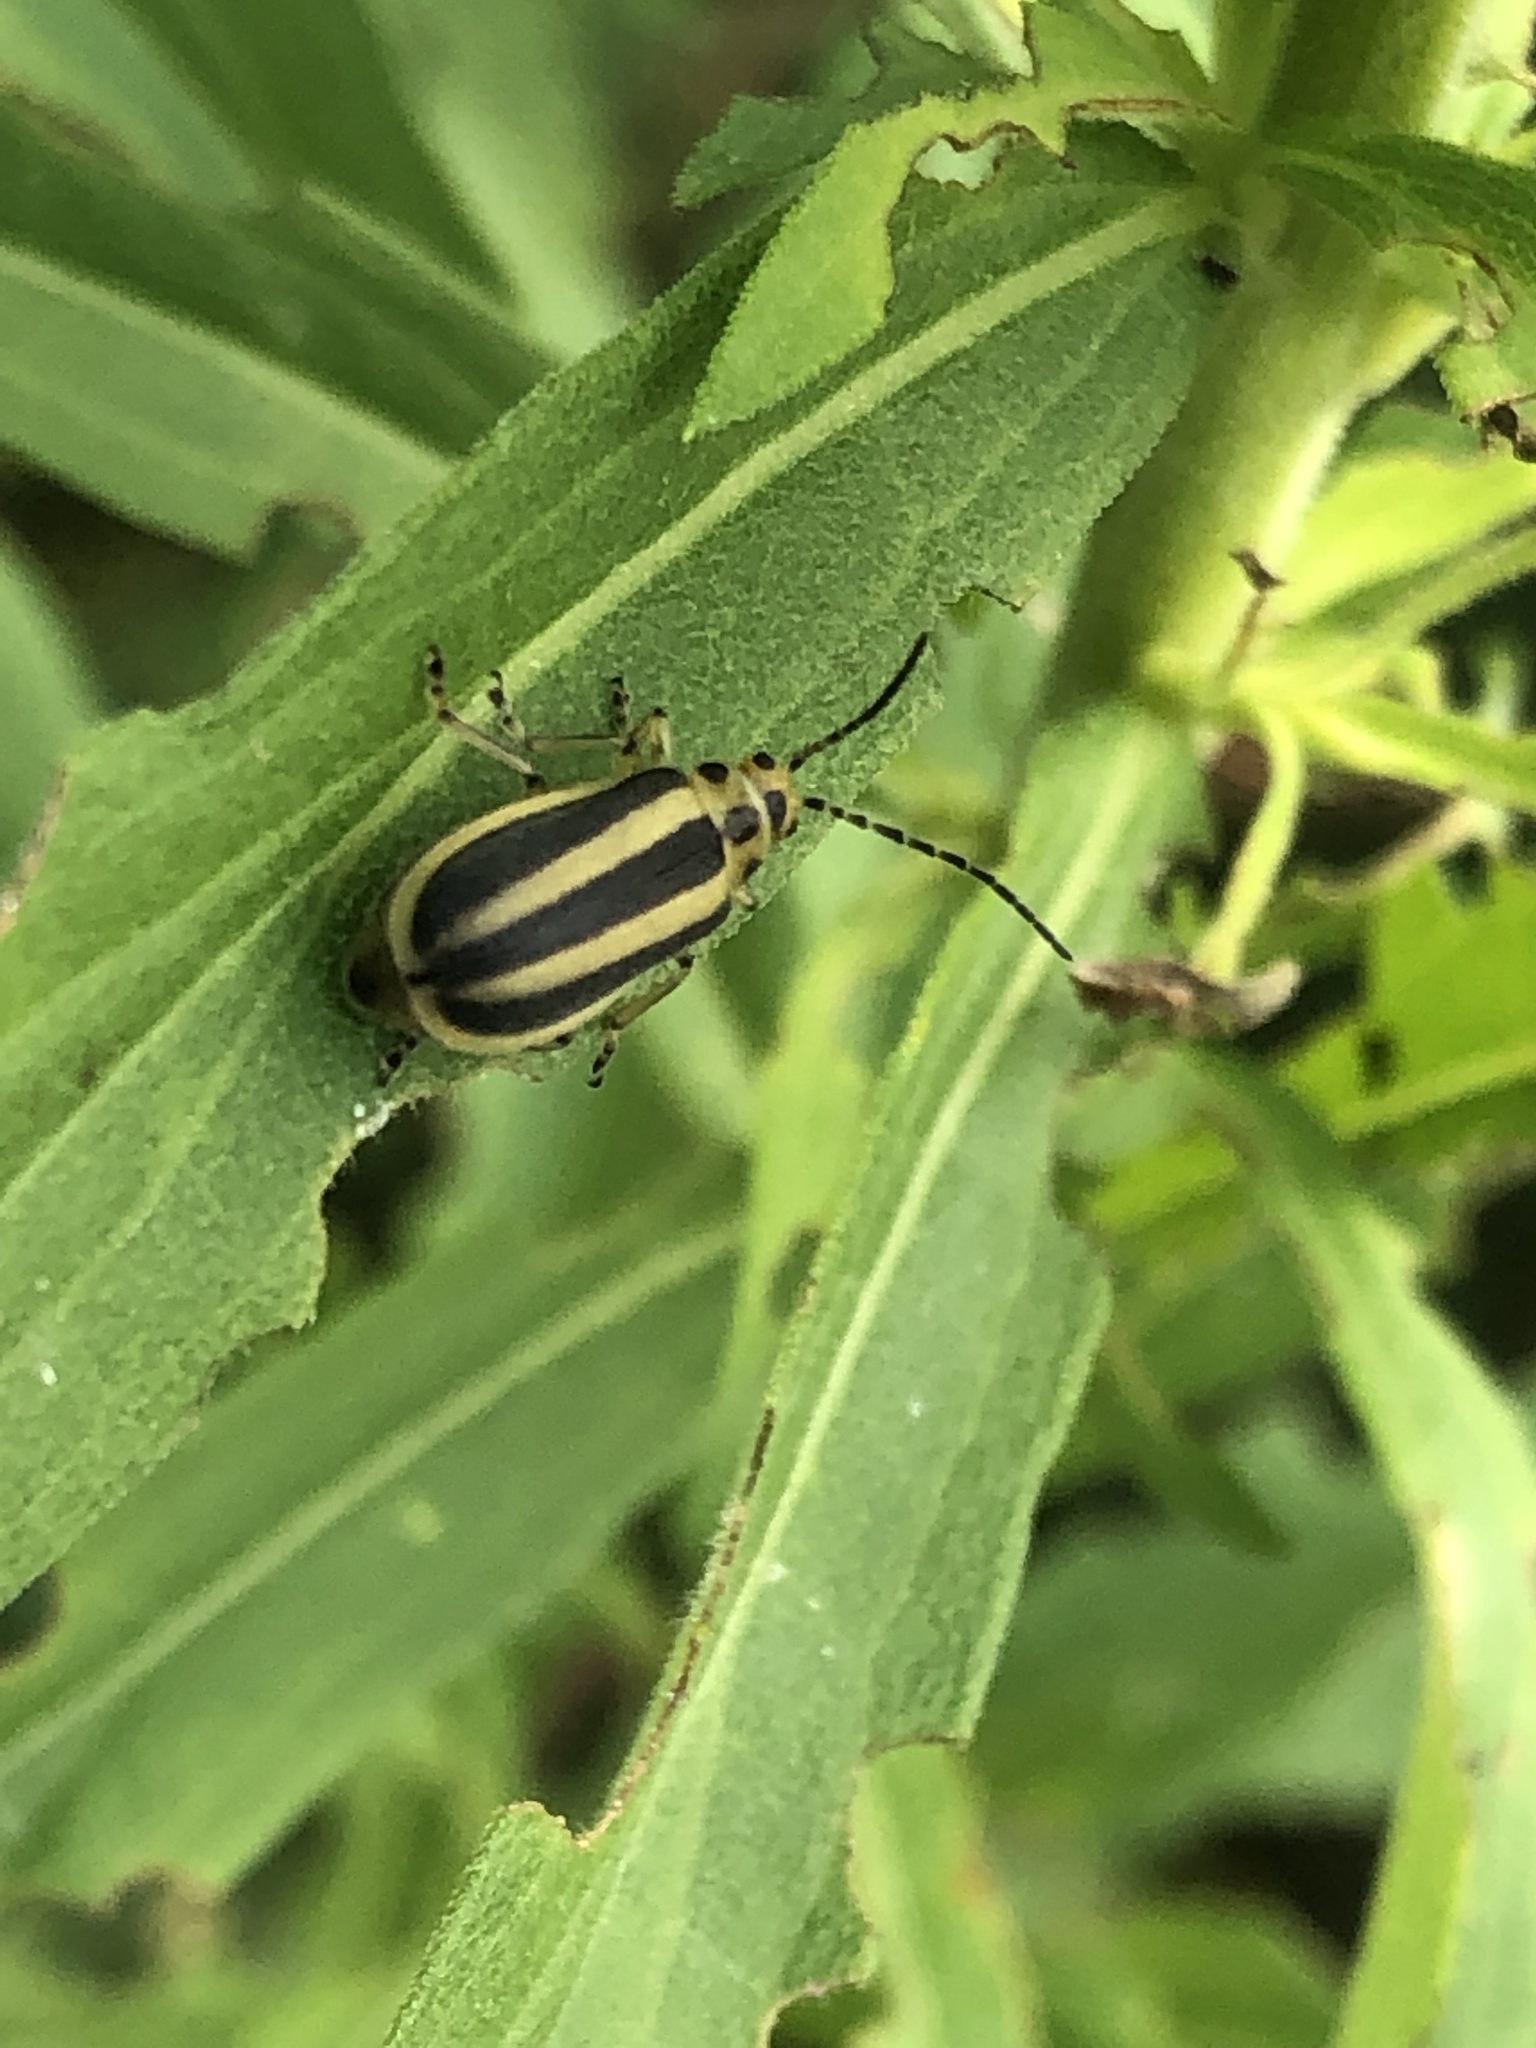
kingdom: Animalia
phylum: Arthropoda
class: Insecta
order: Coleoptera
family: Chrysomelidae
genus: Trirhabda
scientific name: Trirhabda canadensis
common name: Goldenrod leaf beetle
